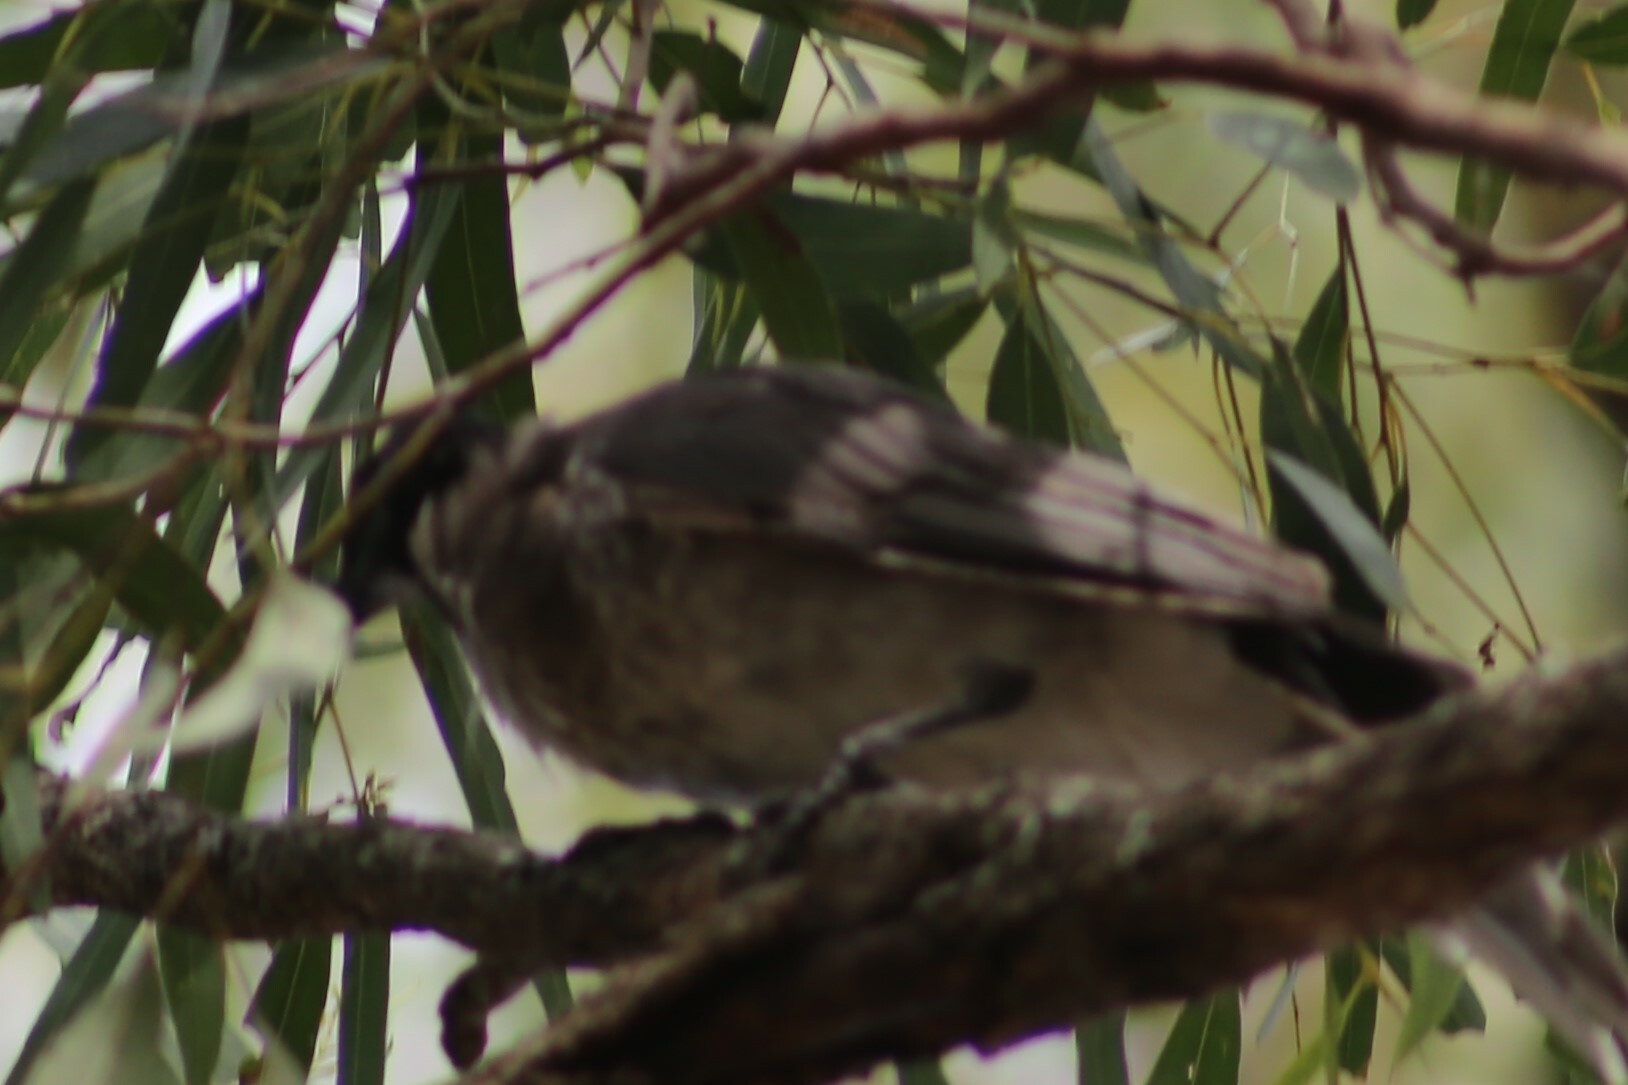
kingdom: Animalia
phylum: Chordata
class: Aves
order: Passeriformes
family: Meliphagidae
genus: Philemon
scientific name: Philemon corniculatus
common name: Noisy friarbird
